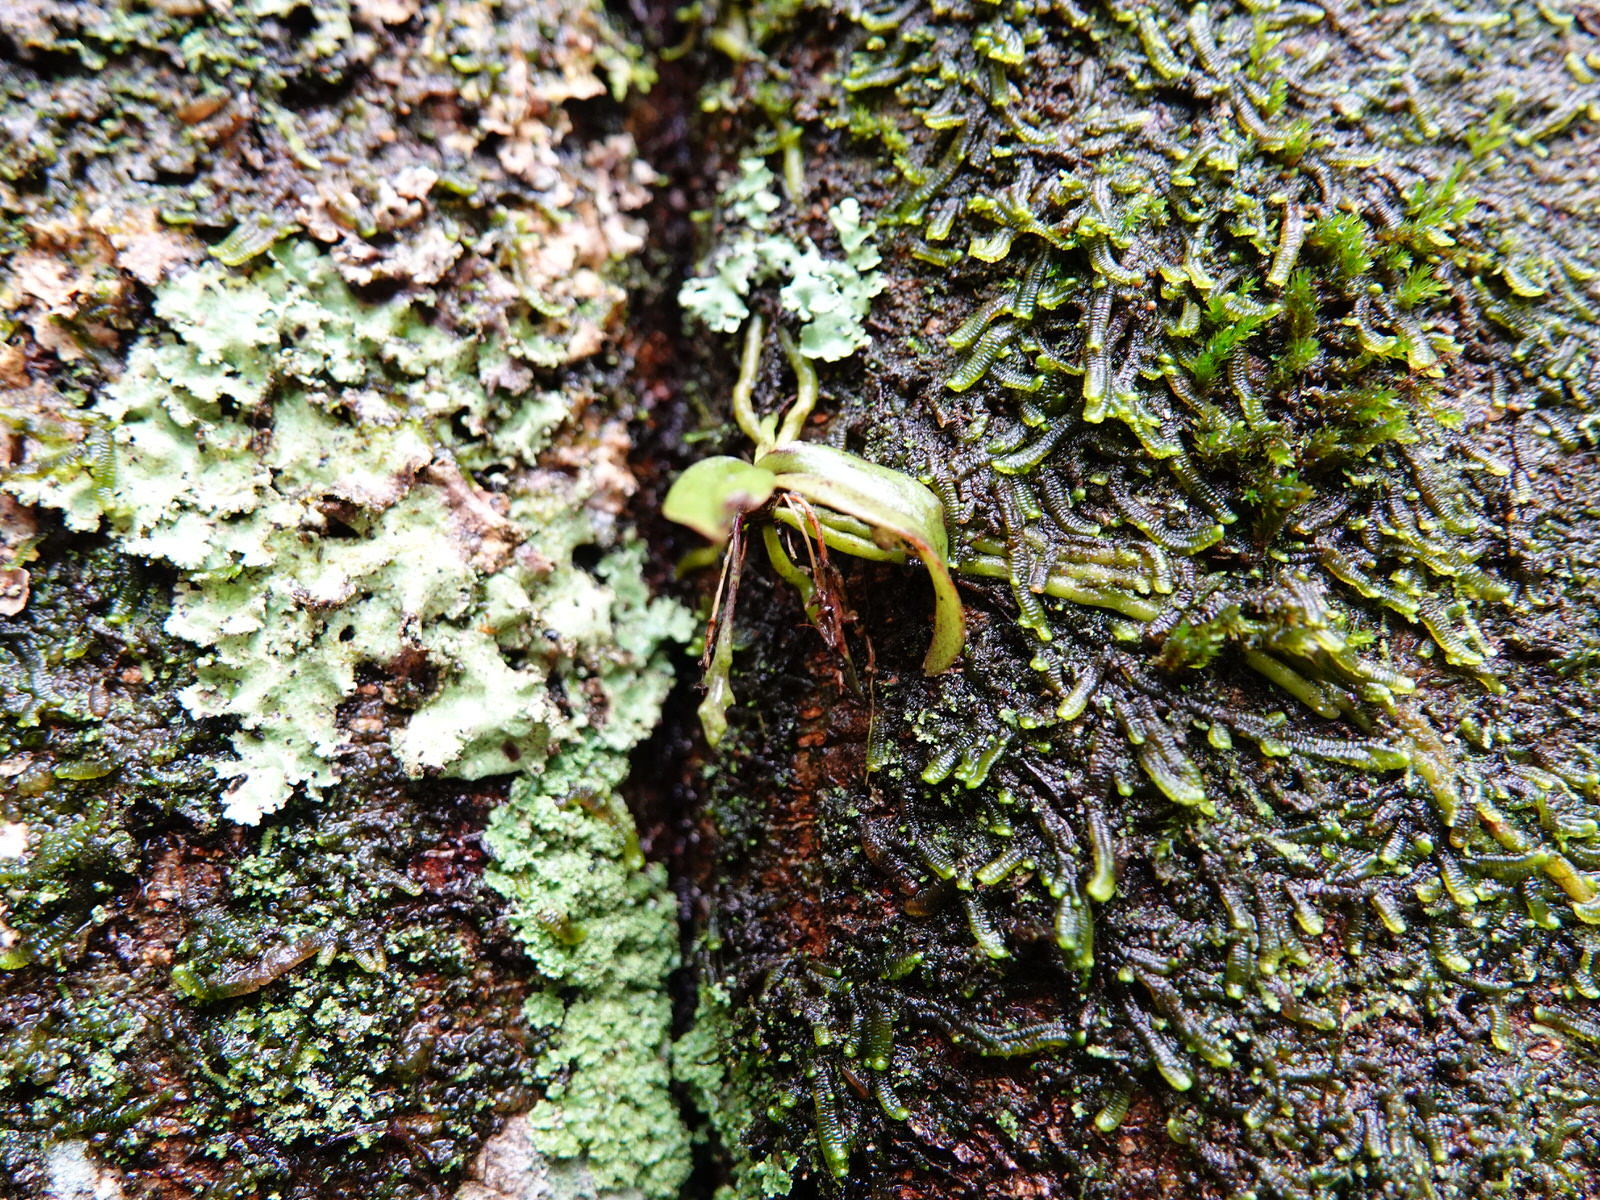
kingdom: Plantae
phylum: Tracheophyta
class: Liliopsida
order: Asparagales
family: Orchidaceae
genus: Drymoanthus
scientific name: Drymoanthus adversus
